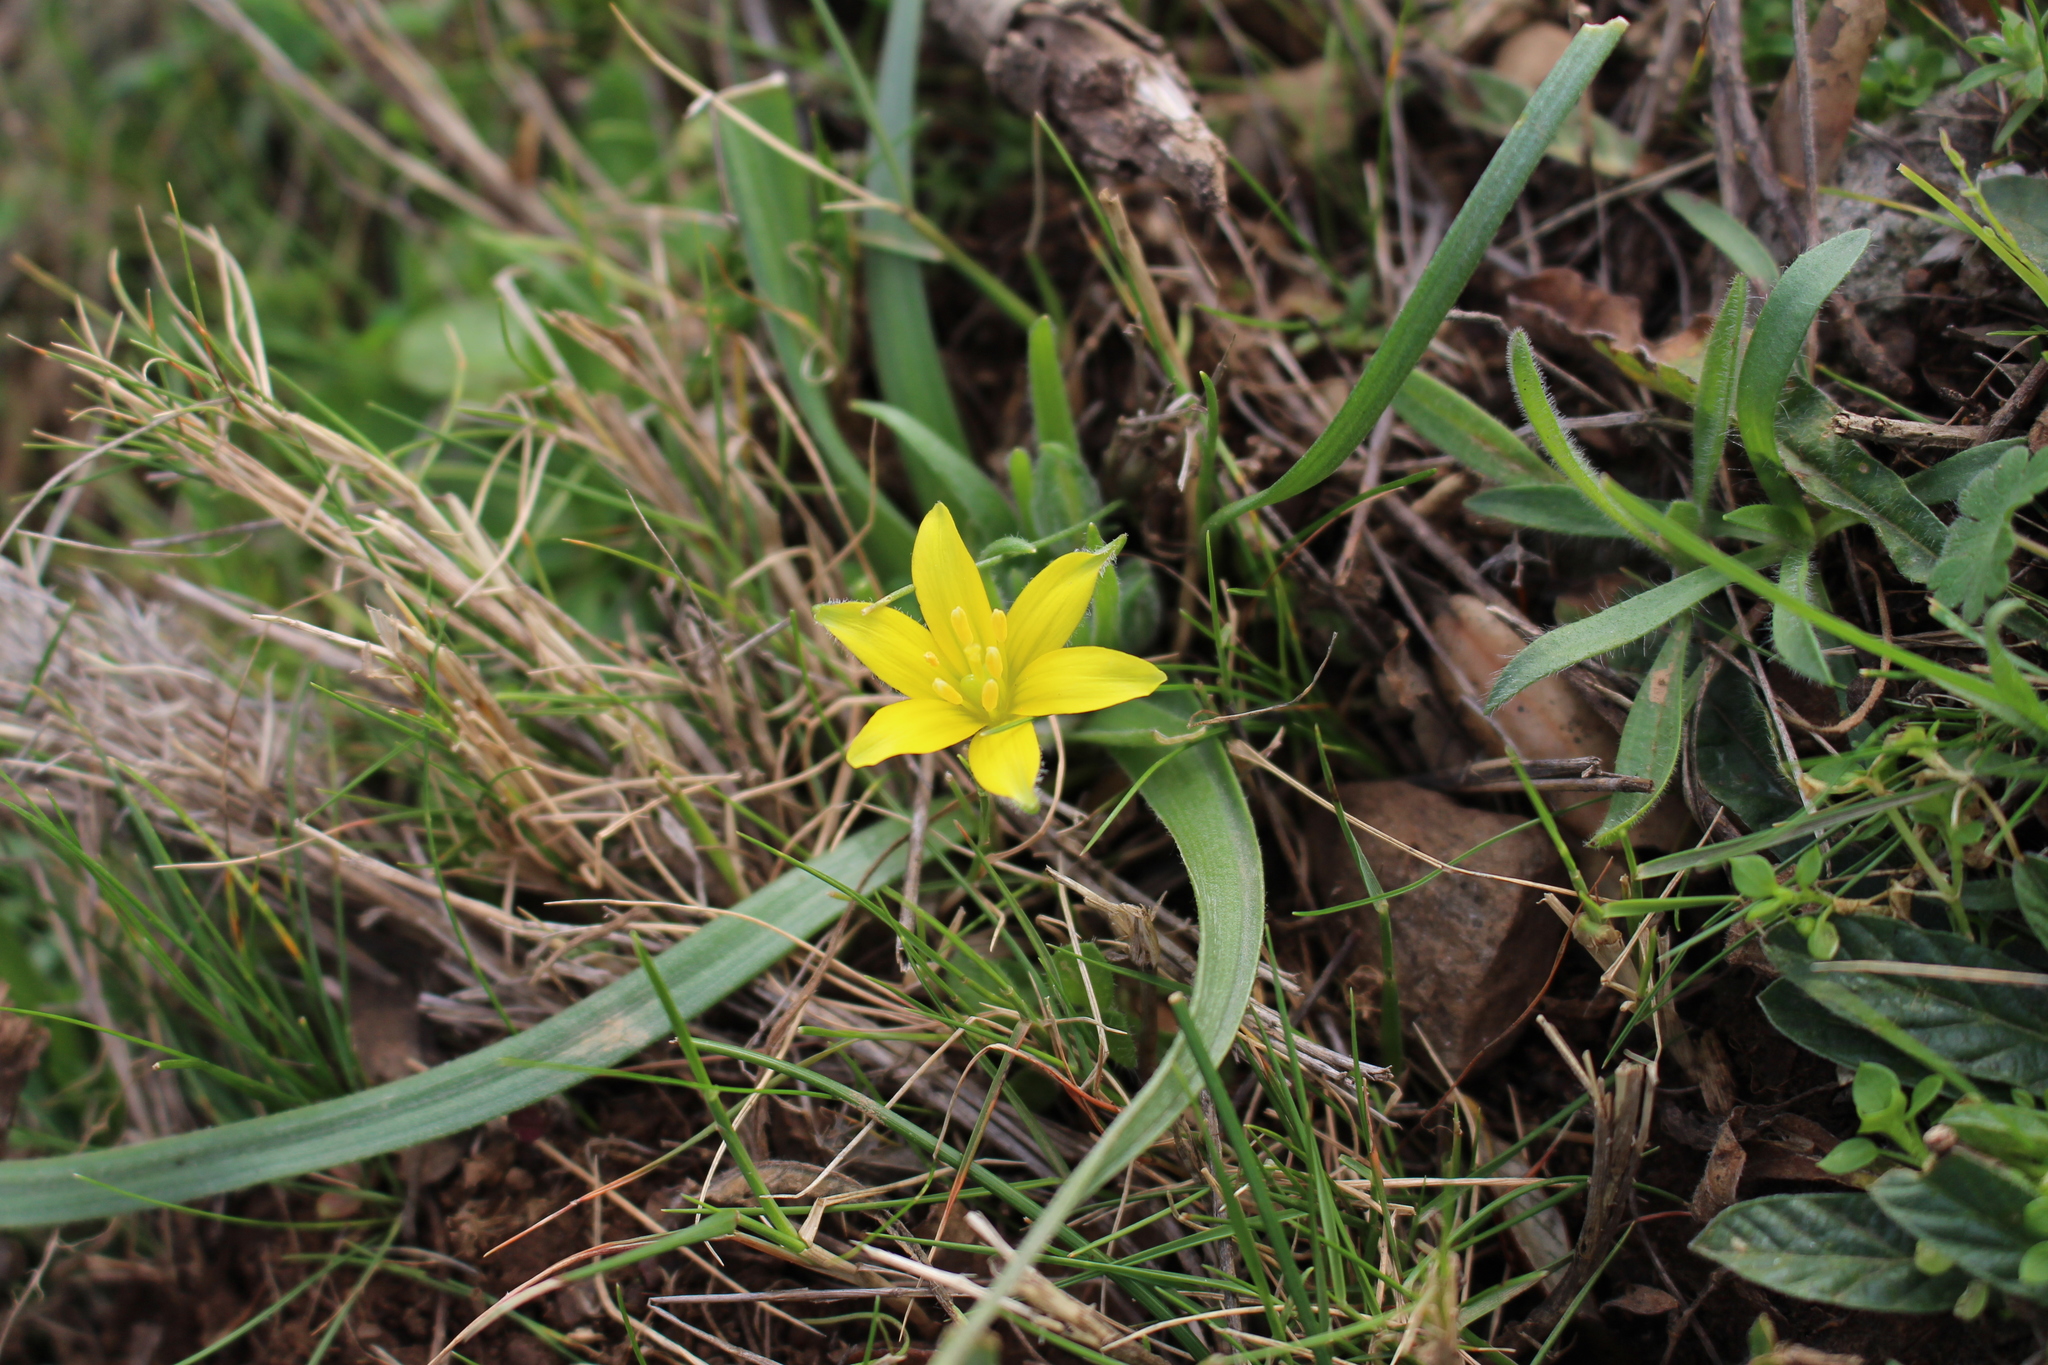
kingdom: Plantae
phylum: Tracheophyta
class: Liliopsida
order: Liliales
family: Liliaceae
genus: Gagea
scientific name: Gagea granatellii
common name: Granatelli’s gagea
